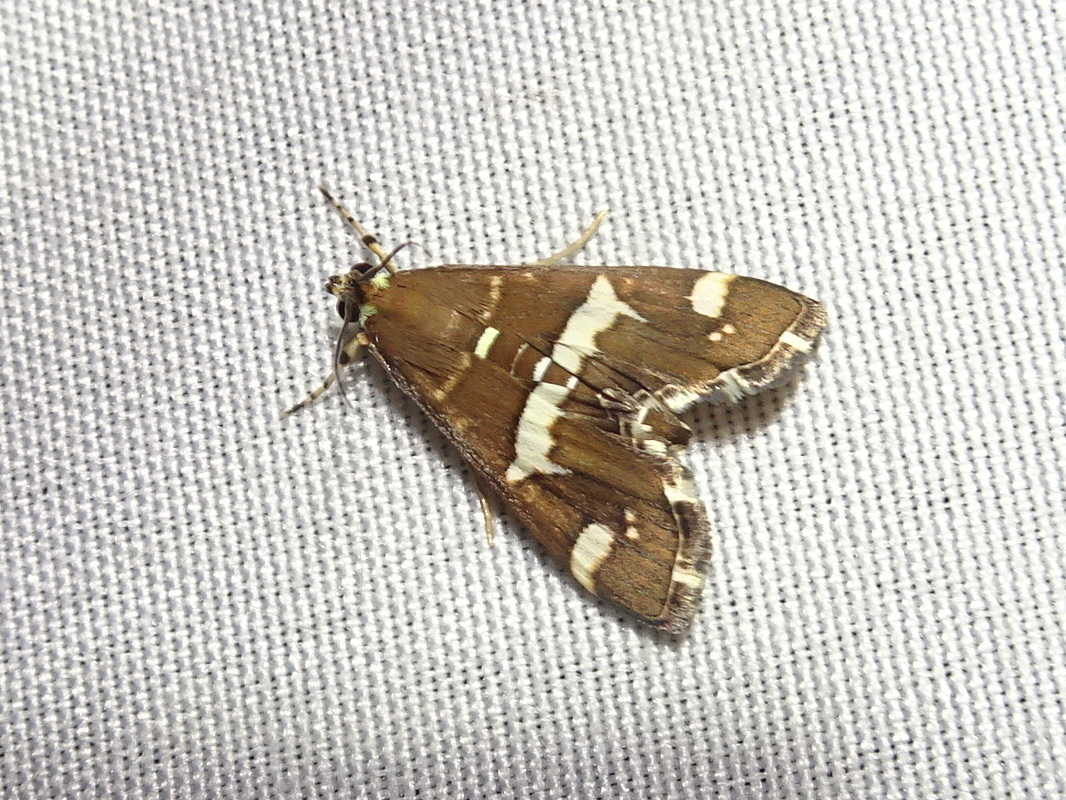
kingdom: Animalia
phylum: Arthropoda
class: Insecta
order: Lepidoptera
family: Crambidae
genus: Spoladea
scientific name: Spoladea recurvalis
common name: Beet webworm moth
